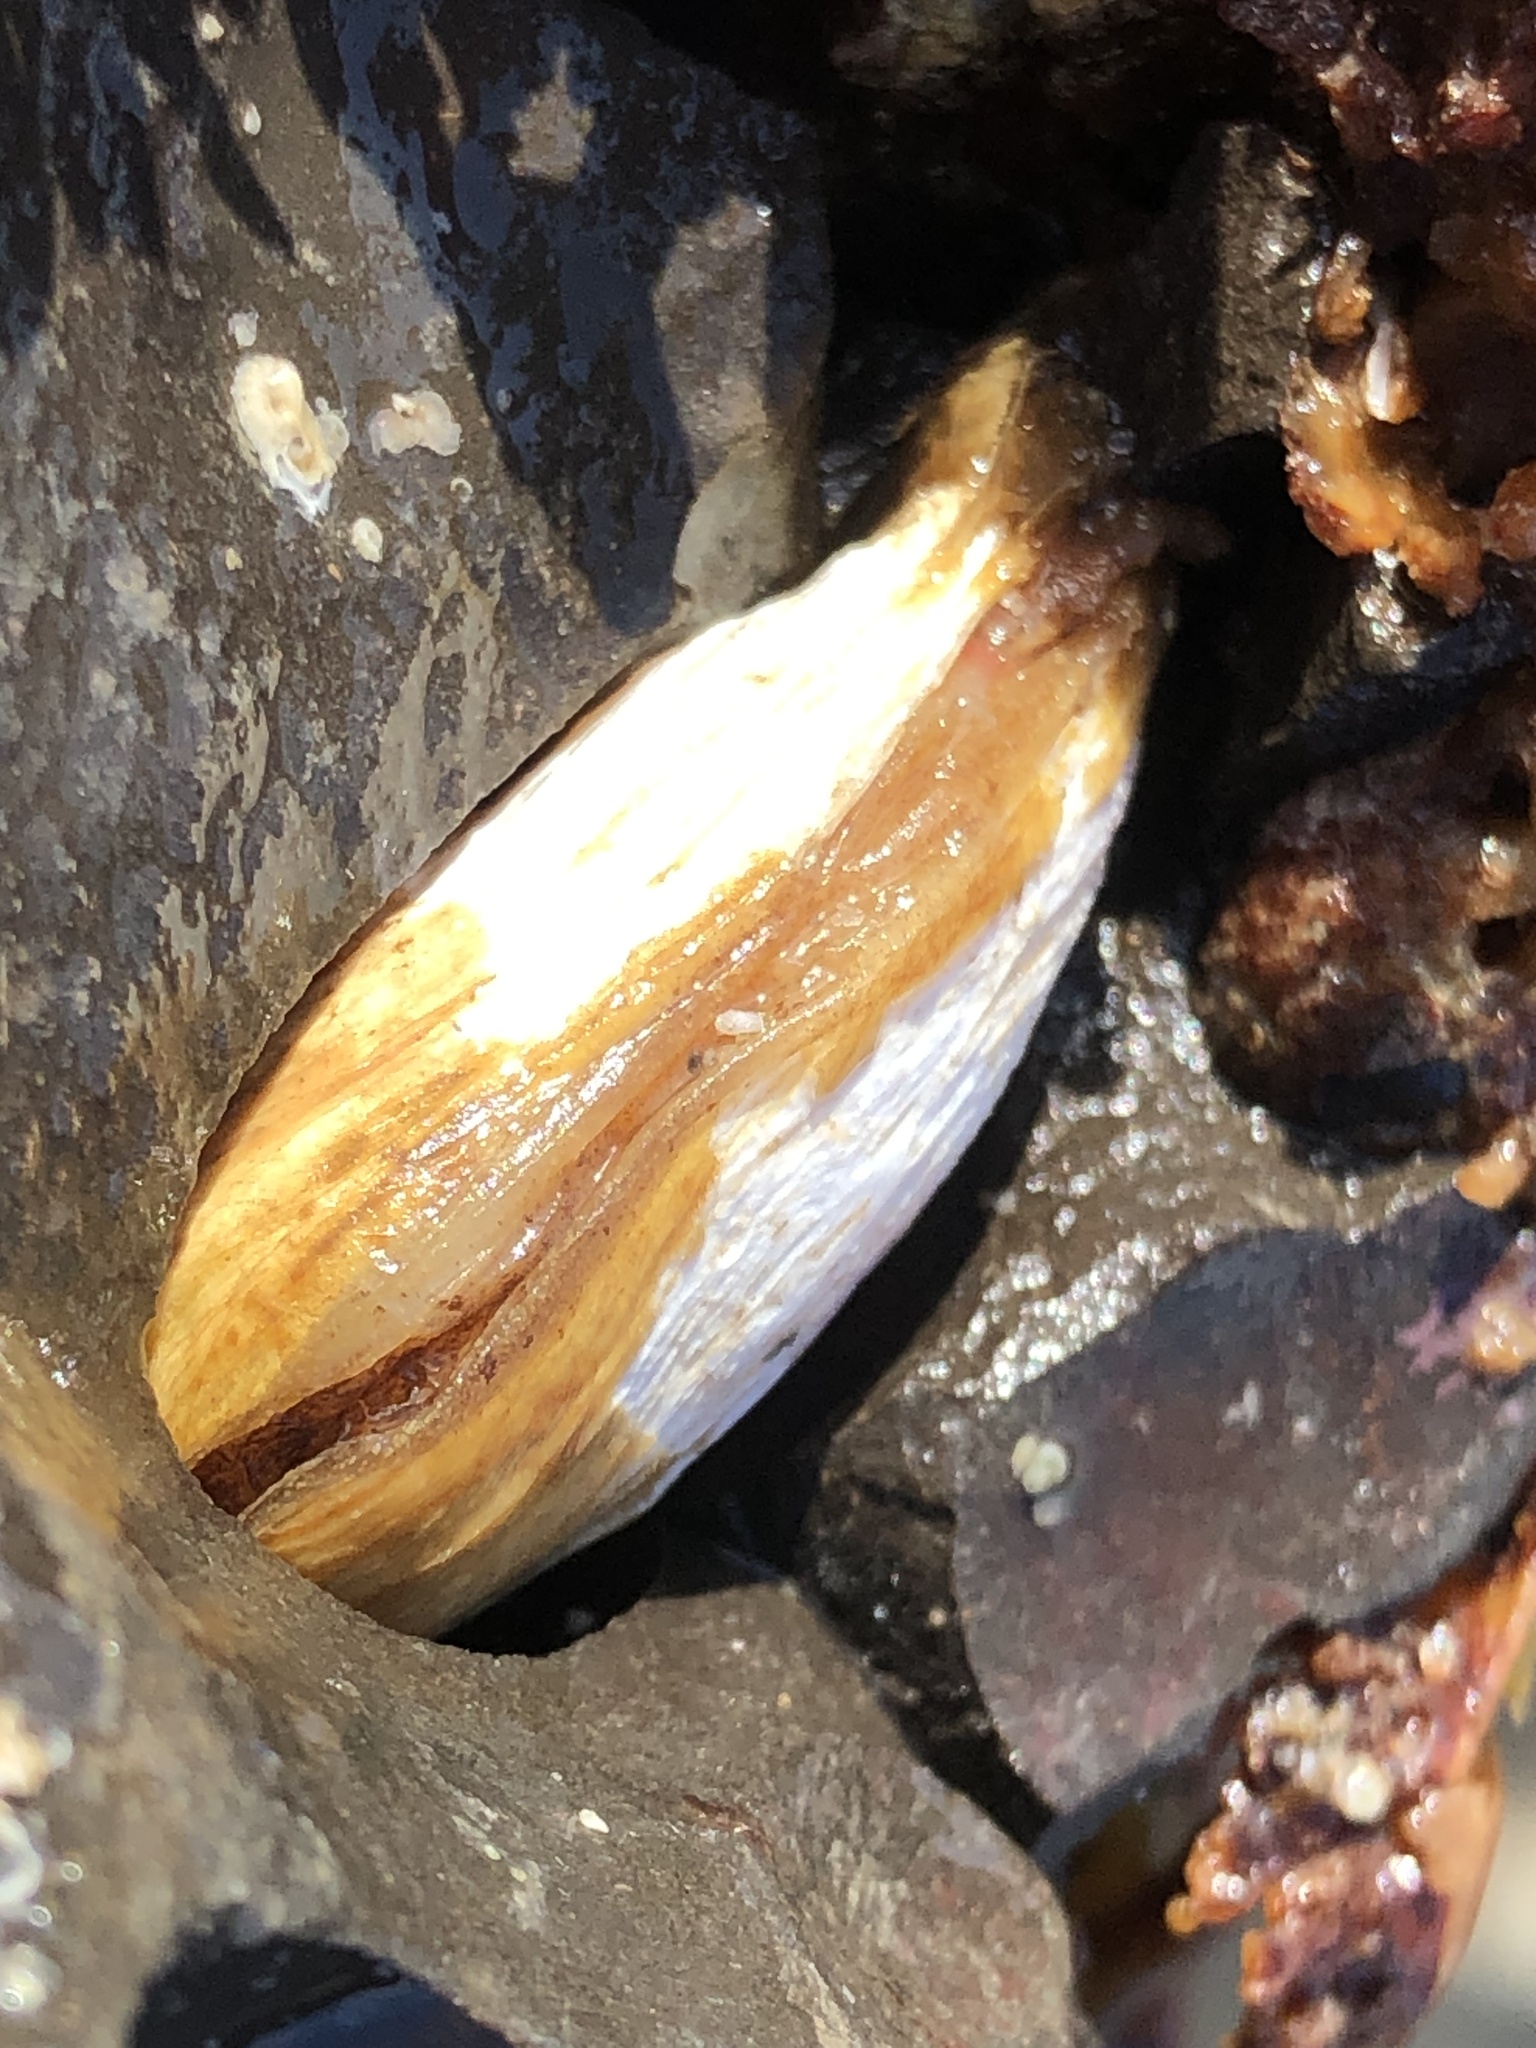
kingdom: Animalia
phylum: Mollusca
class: Bivalvia
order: Adapedonta
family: Hiatellidae
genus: Hiatella
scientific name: Hiatella arctica
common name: Arctic hiatella
